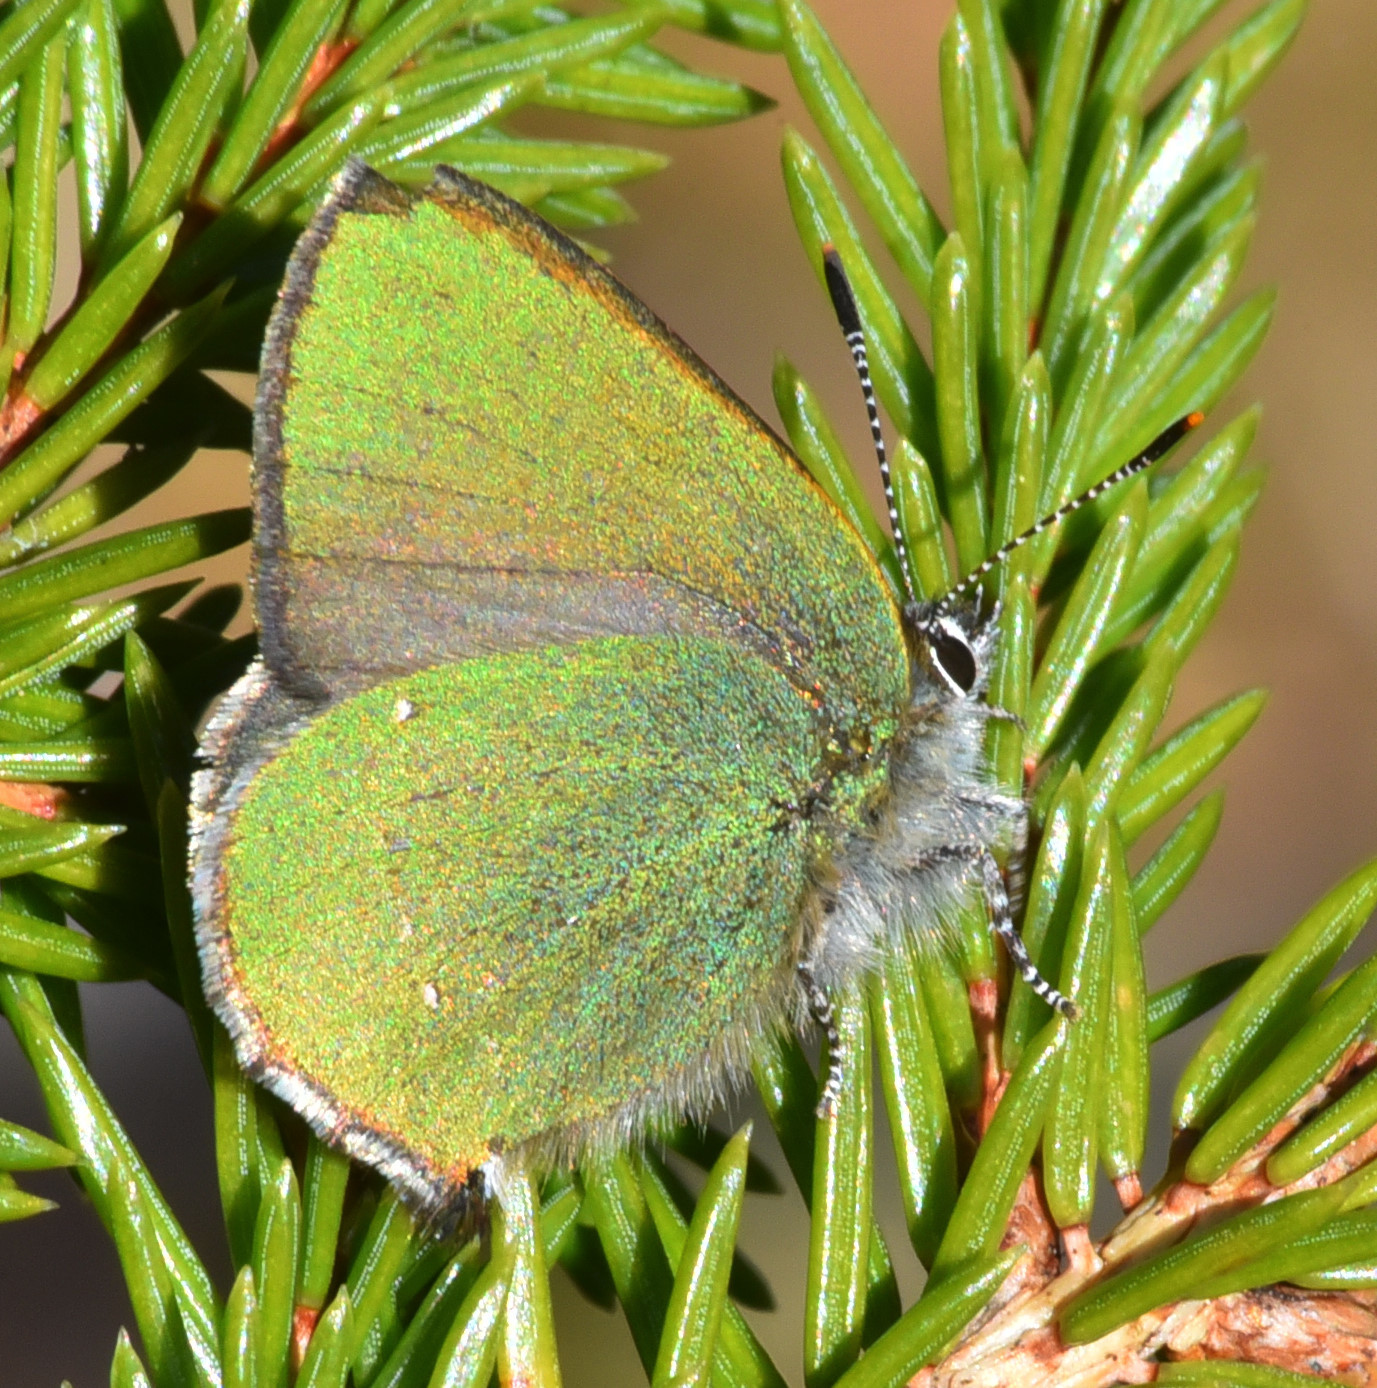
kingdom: Animalia
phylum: Arthropoda
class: Insecta
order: Lepidoptera
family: Lycaenidae
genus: Callophrys
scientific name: Callophrys rubi
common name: Green hairstreak
